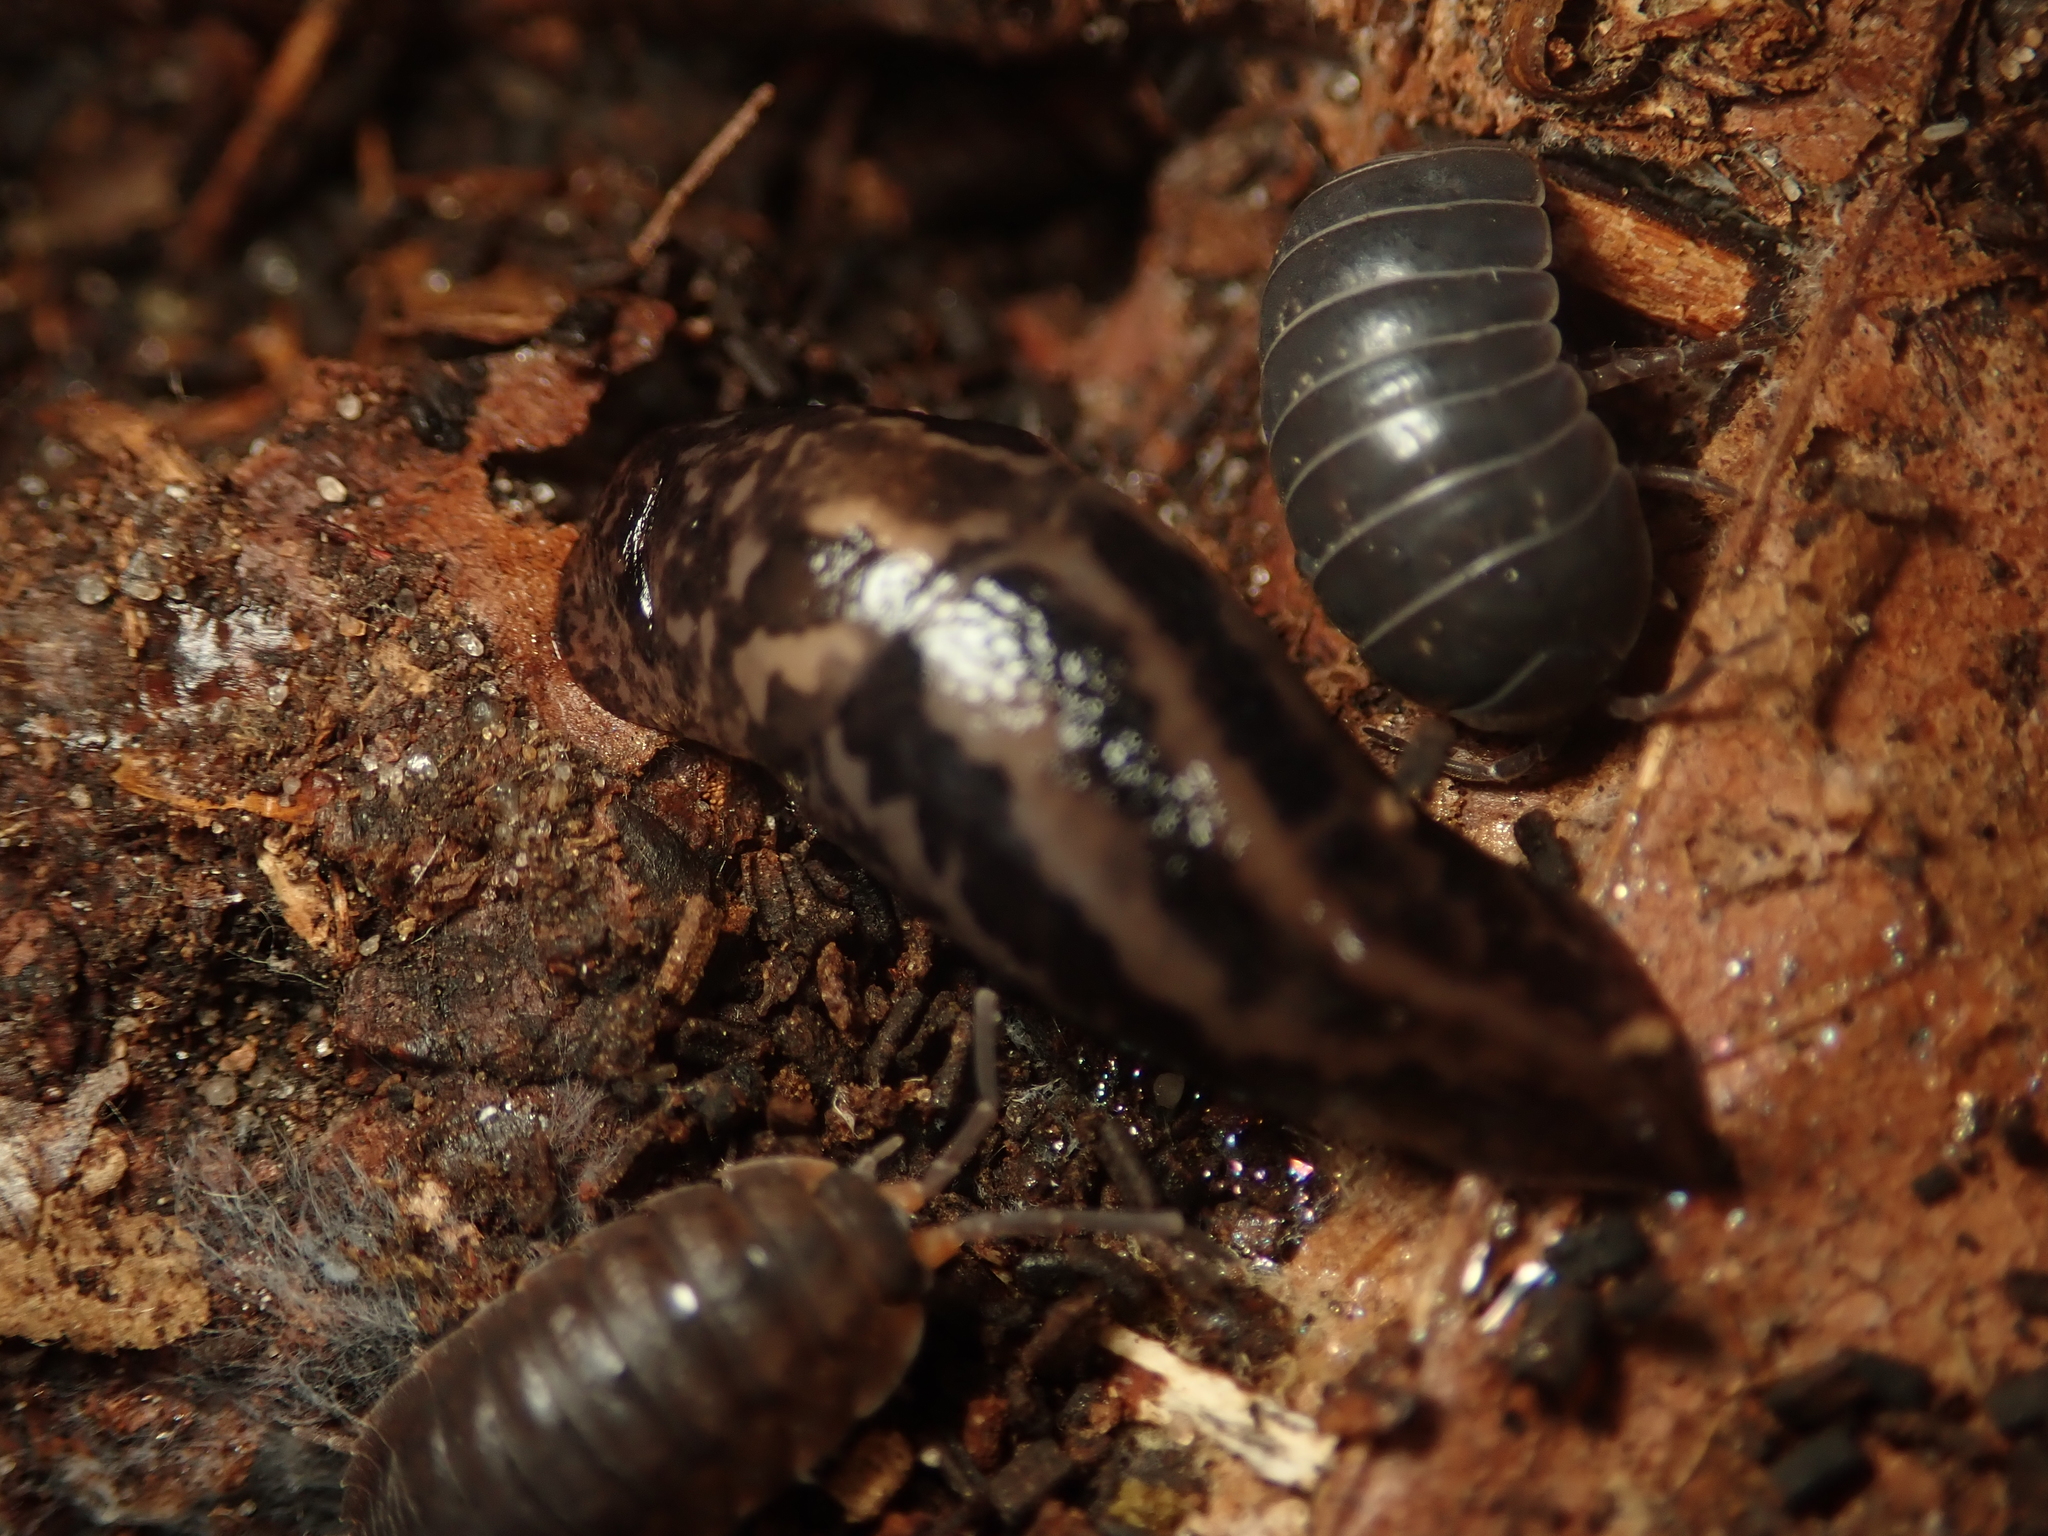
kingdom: Animalia
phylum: Mollusca
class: Gastropoda
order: Stylommatophora
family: Limacidae
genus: Limax
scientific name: Limax maximus
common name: Great grey slug
